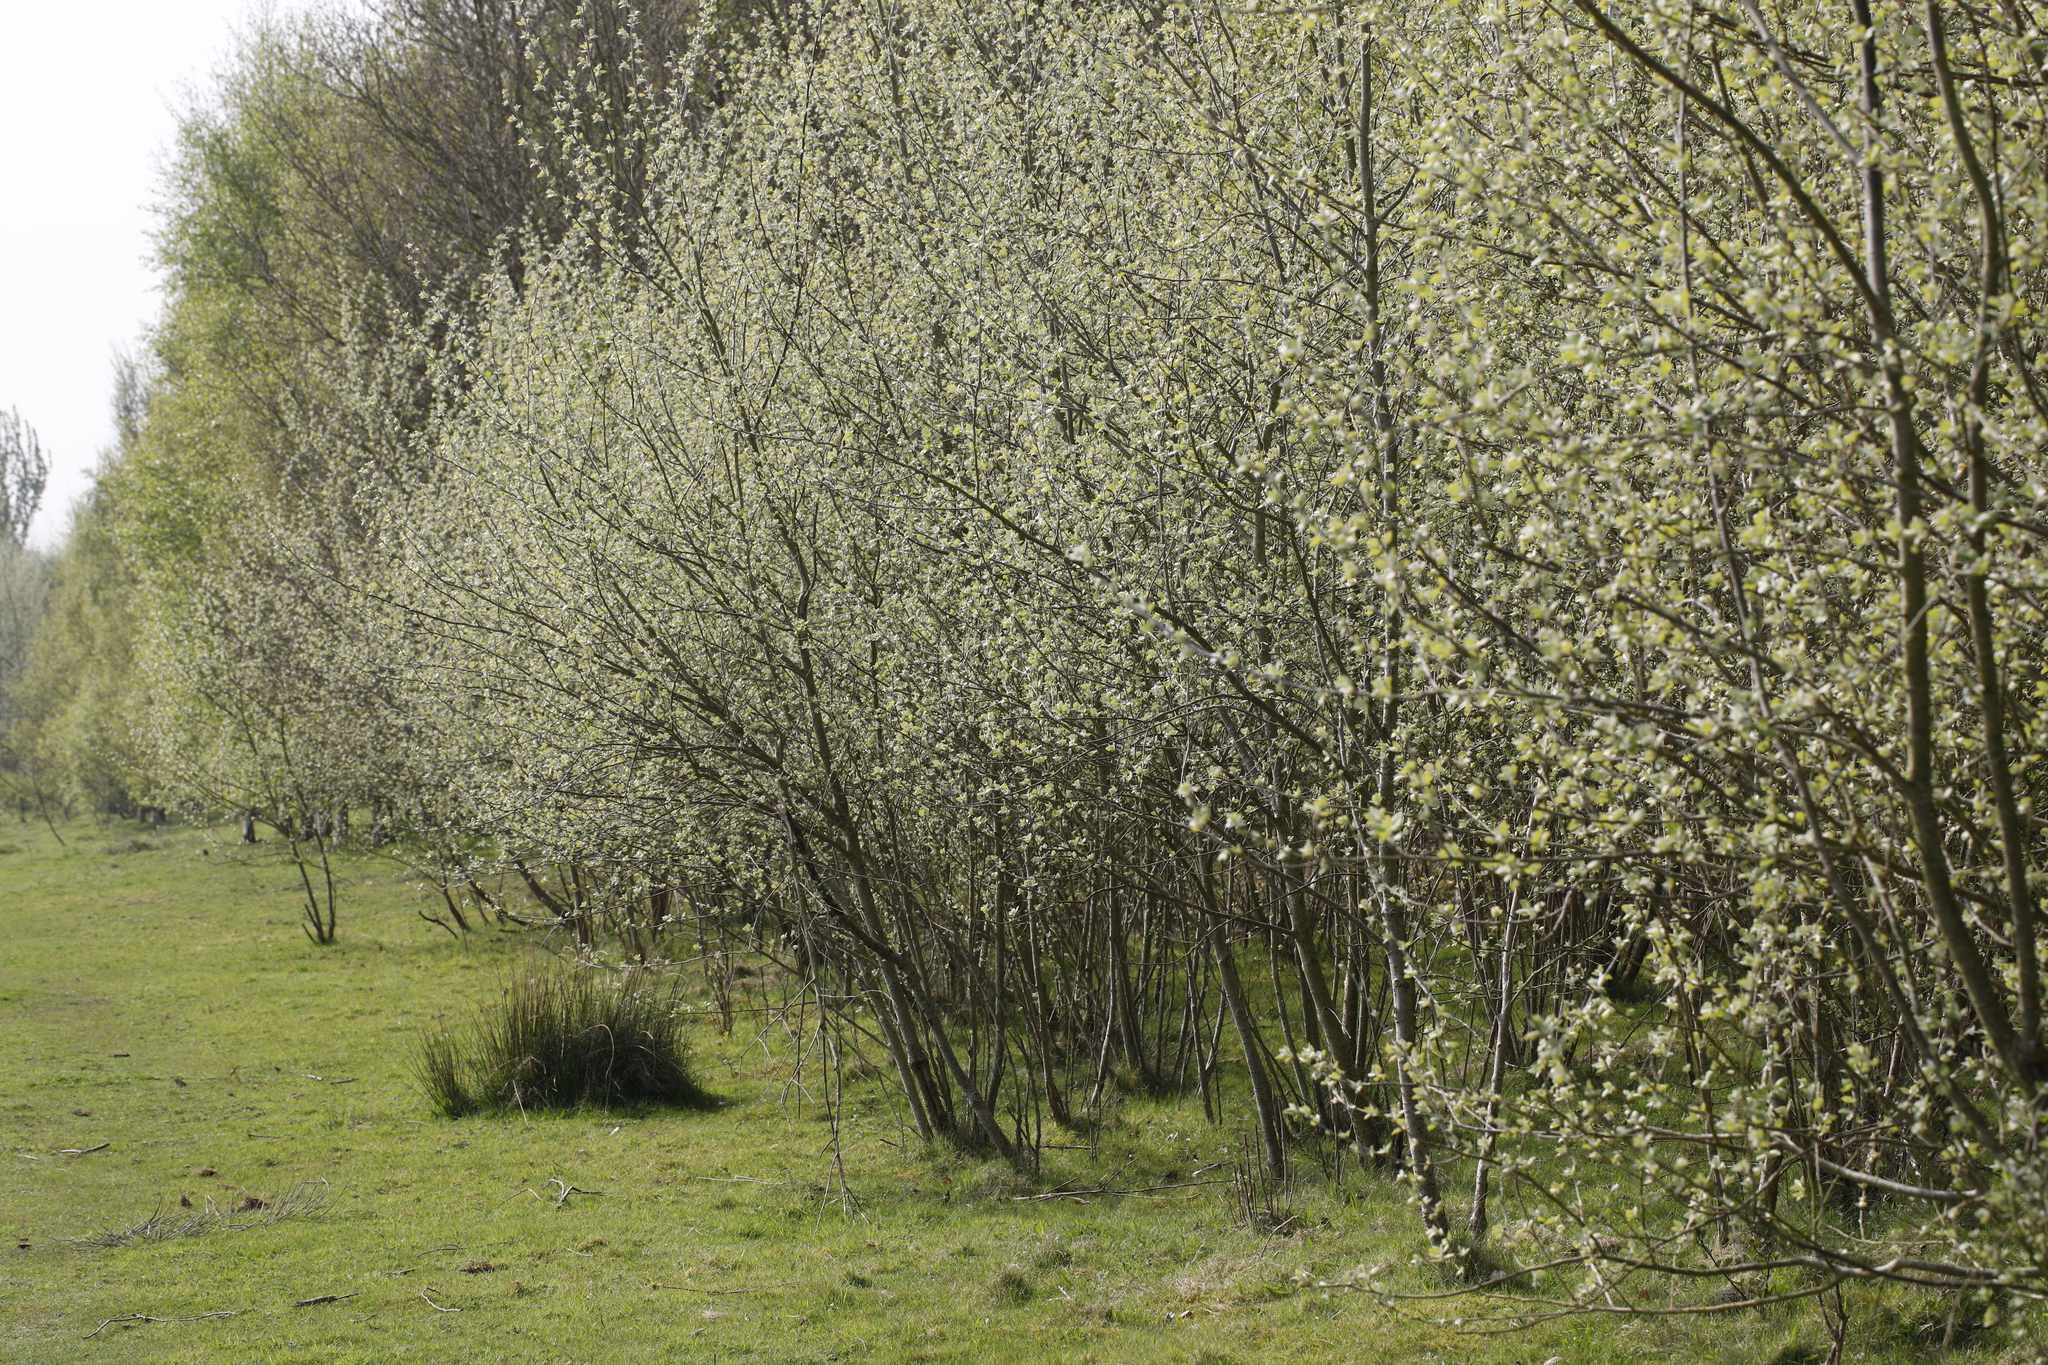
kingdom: Plantae
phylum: Tracheophyta
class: Magnoliopsida
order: Malpighiales
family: Salicaceae
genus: Populus
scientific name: Populus alba
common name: White poplar
